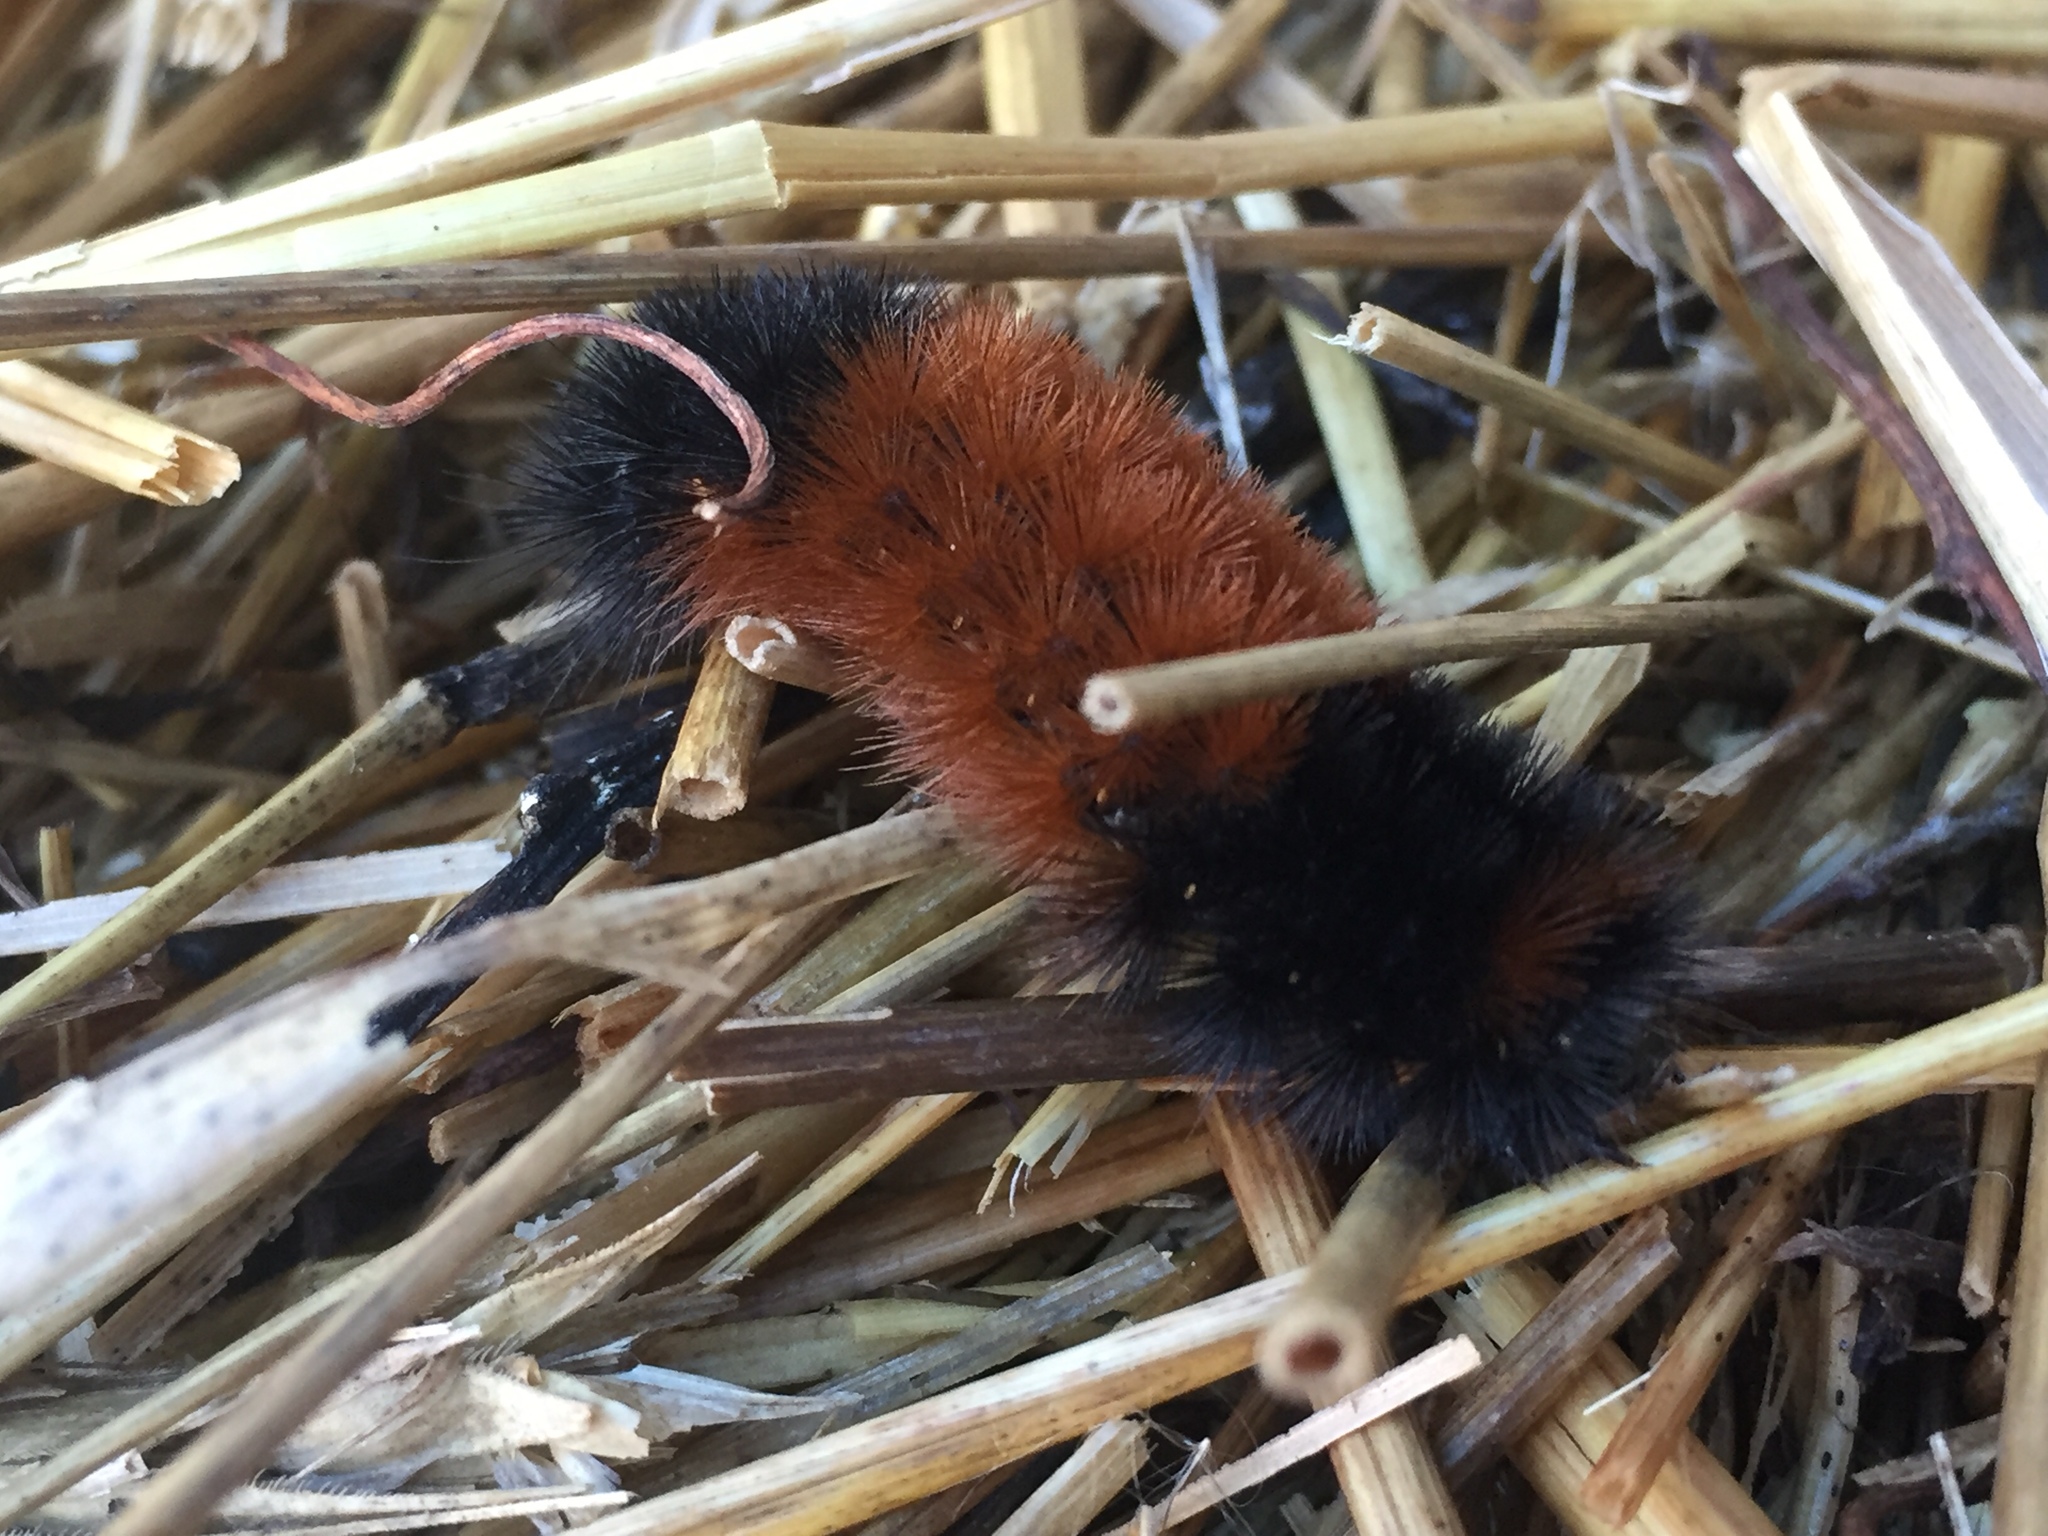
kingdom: Animalia
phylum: Arthropoda
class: Insecta
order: Lepidoptera
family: Erebidae
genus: Pyrrharctia
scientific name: Pyrrharctia isabella
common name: Isabella tiger moth
